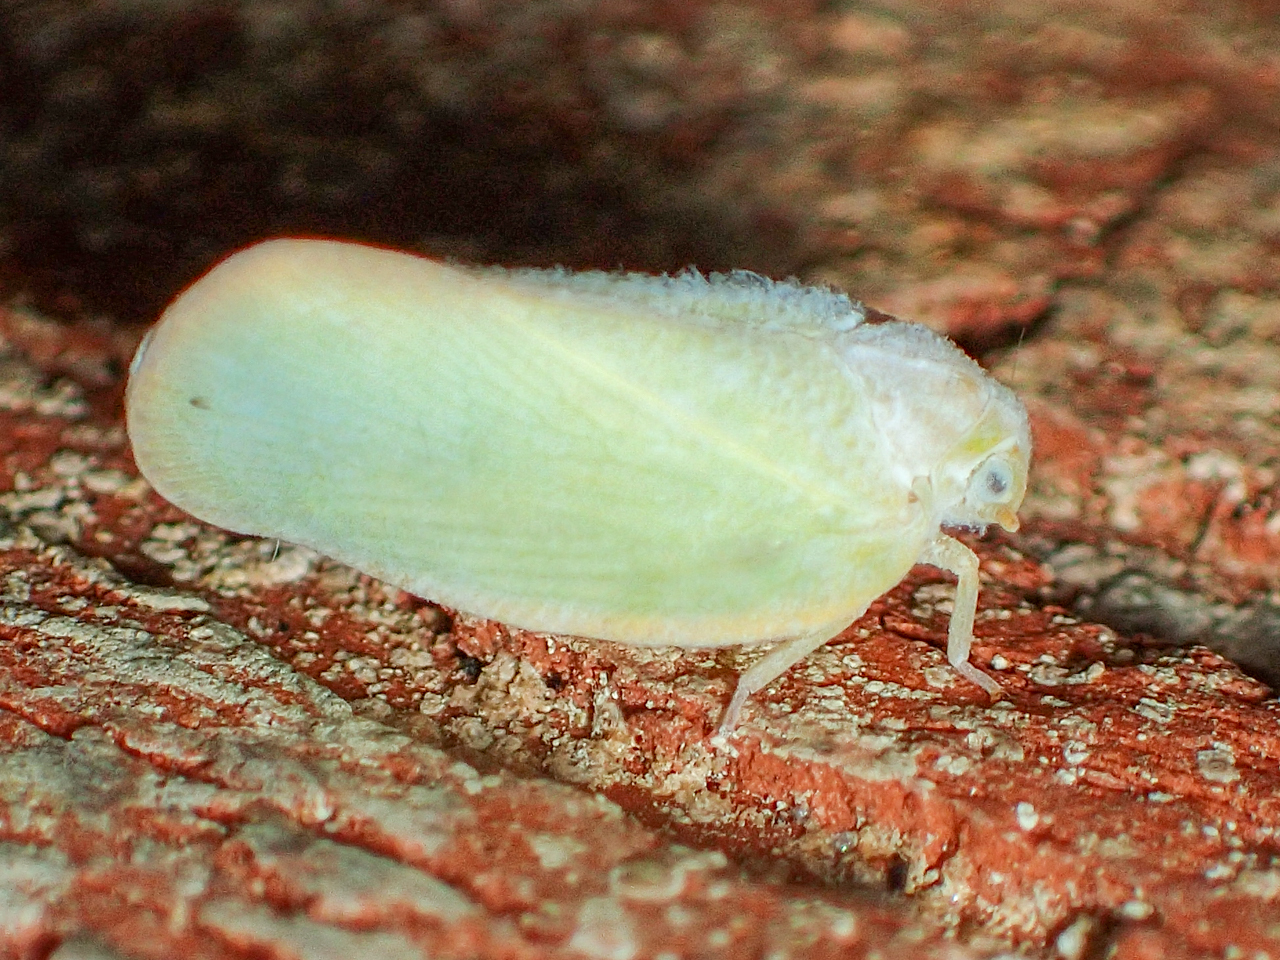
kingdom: Animalia
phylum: Arthropoda
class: Insecta
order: Hemiptera
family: Flatidae
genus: Ormenoides
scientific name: Ormenoides venusta
